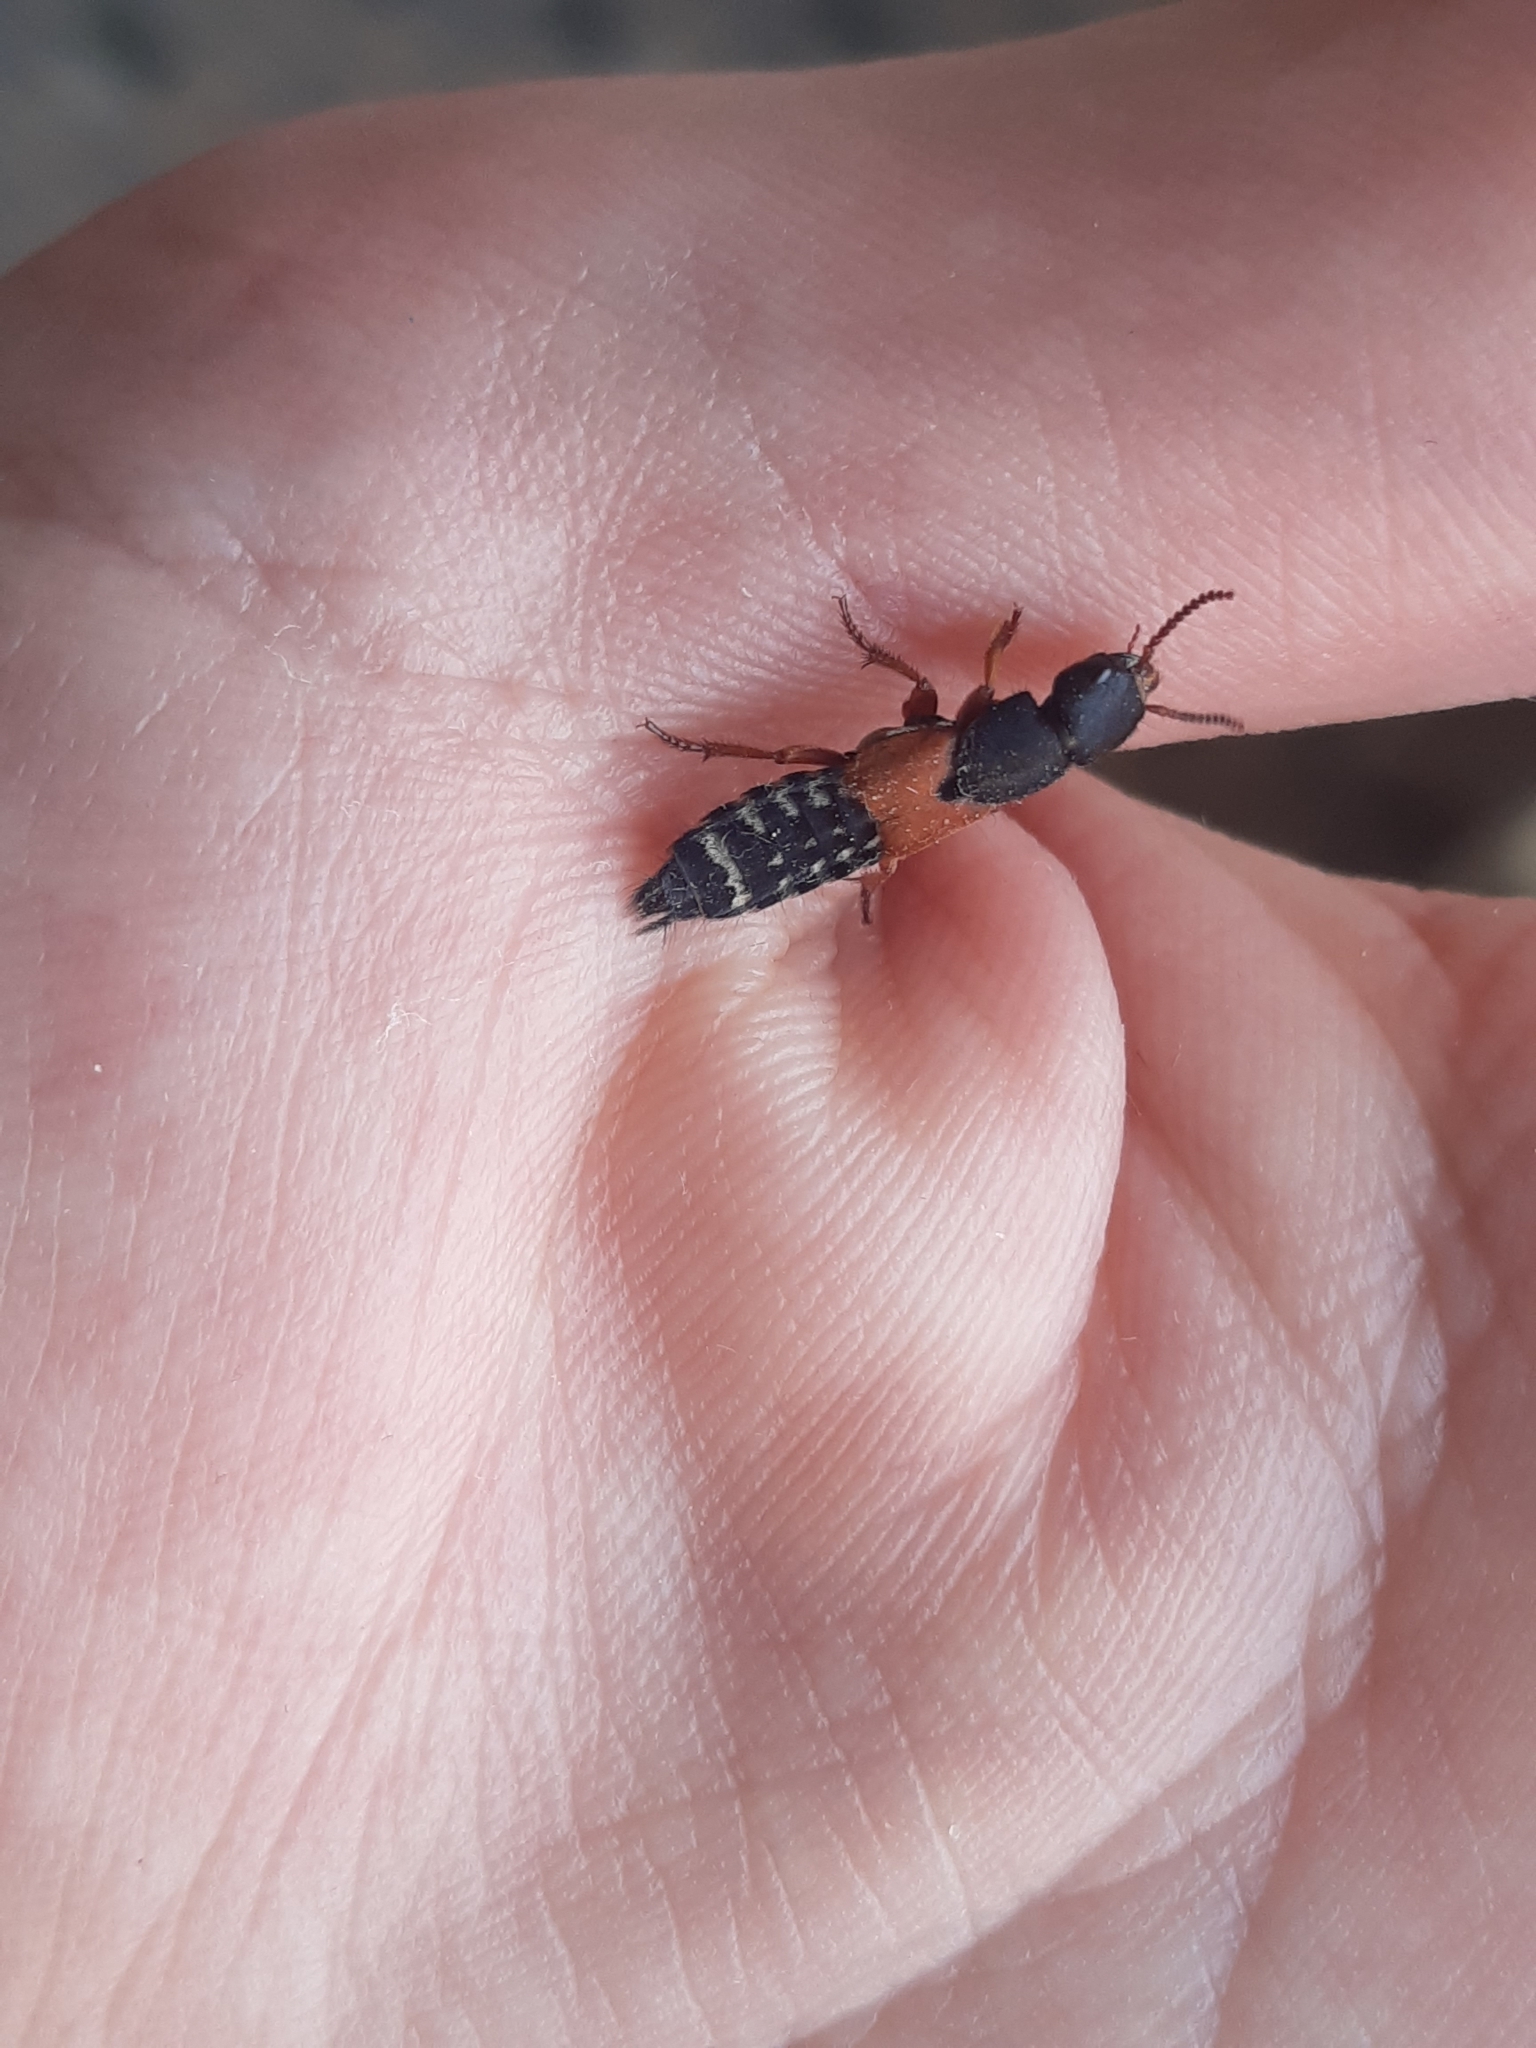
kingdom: Animalia
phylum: Arthropoda
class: Insecta
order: Coleoptera
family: Staphylinidae
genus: Platydracus
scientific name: Platydracus stercorarius
